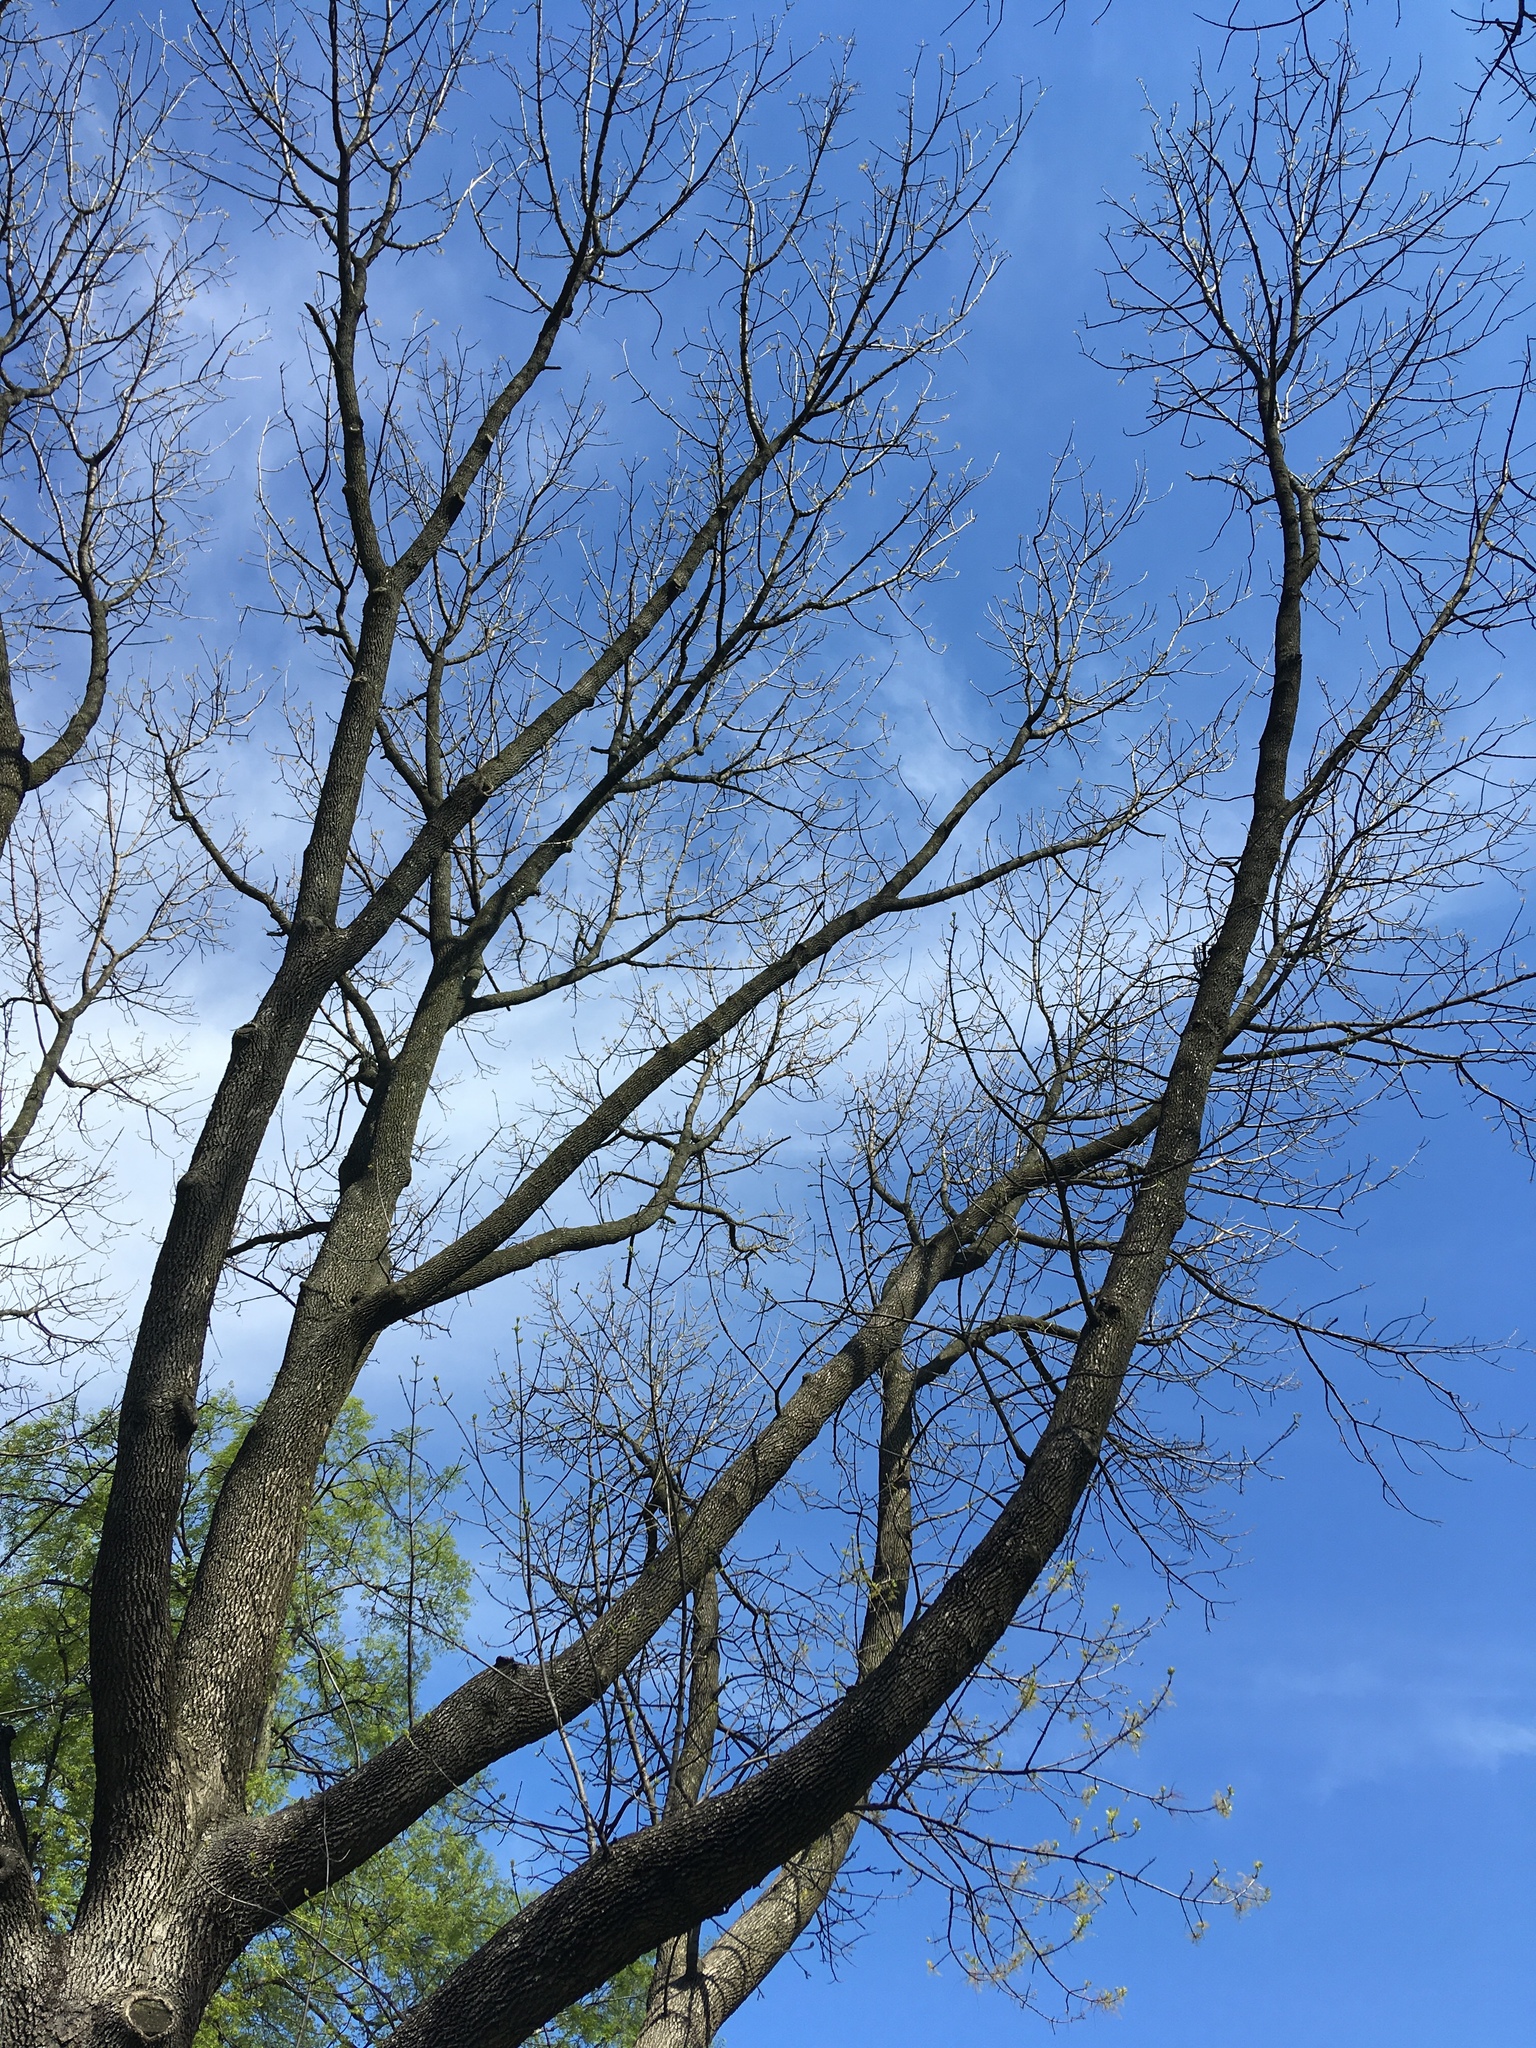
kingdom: Plantae
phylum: Tracheophyta
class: Magnoliopsida
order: Lamiales
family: Oleaceae
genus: Fraxinus
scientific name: Fraxinus americana
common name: White ash
